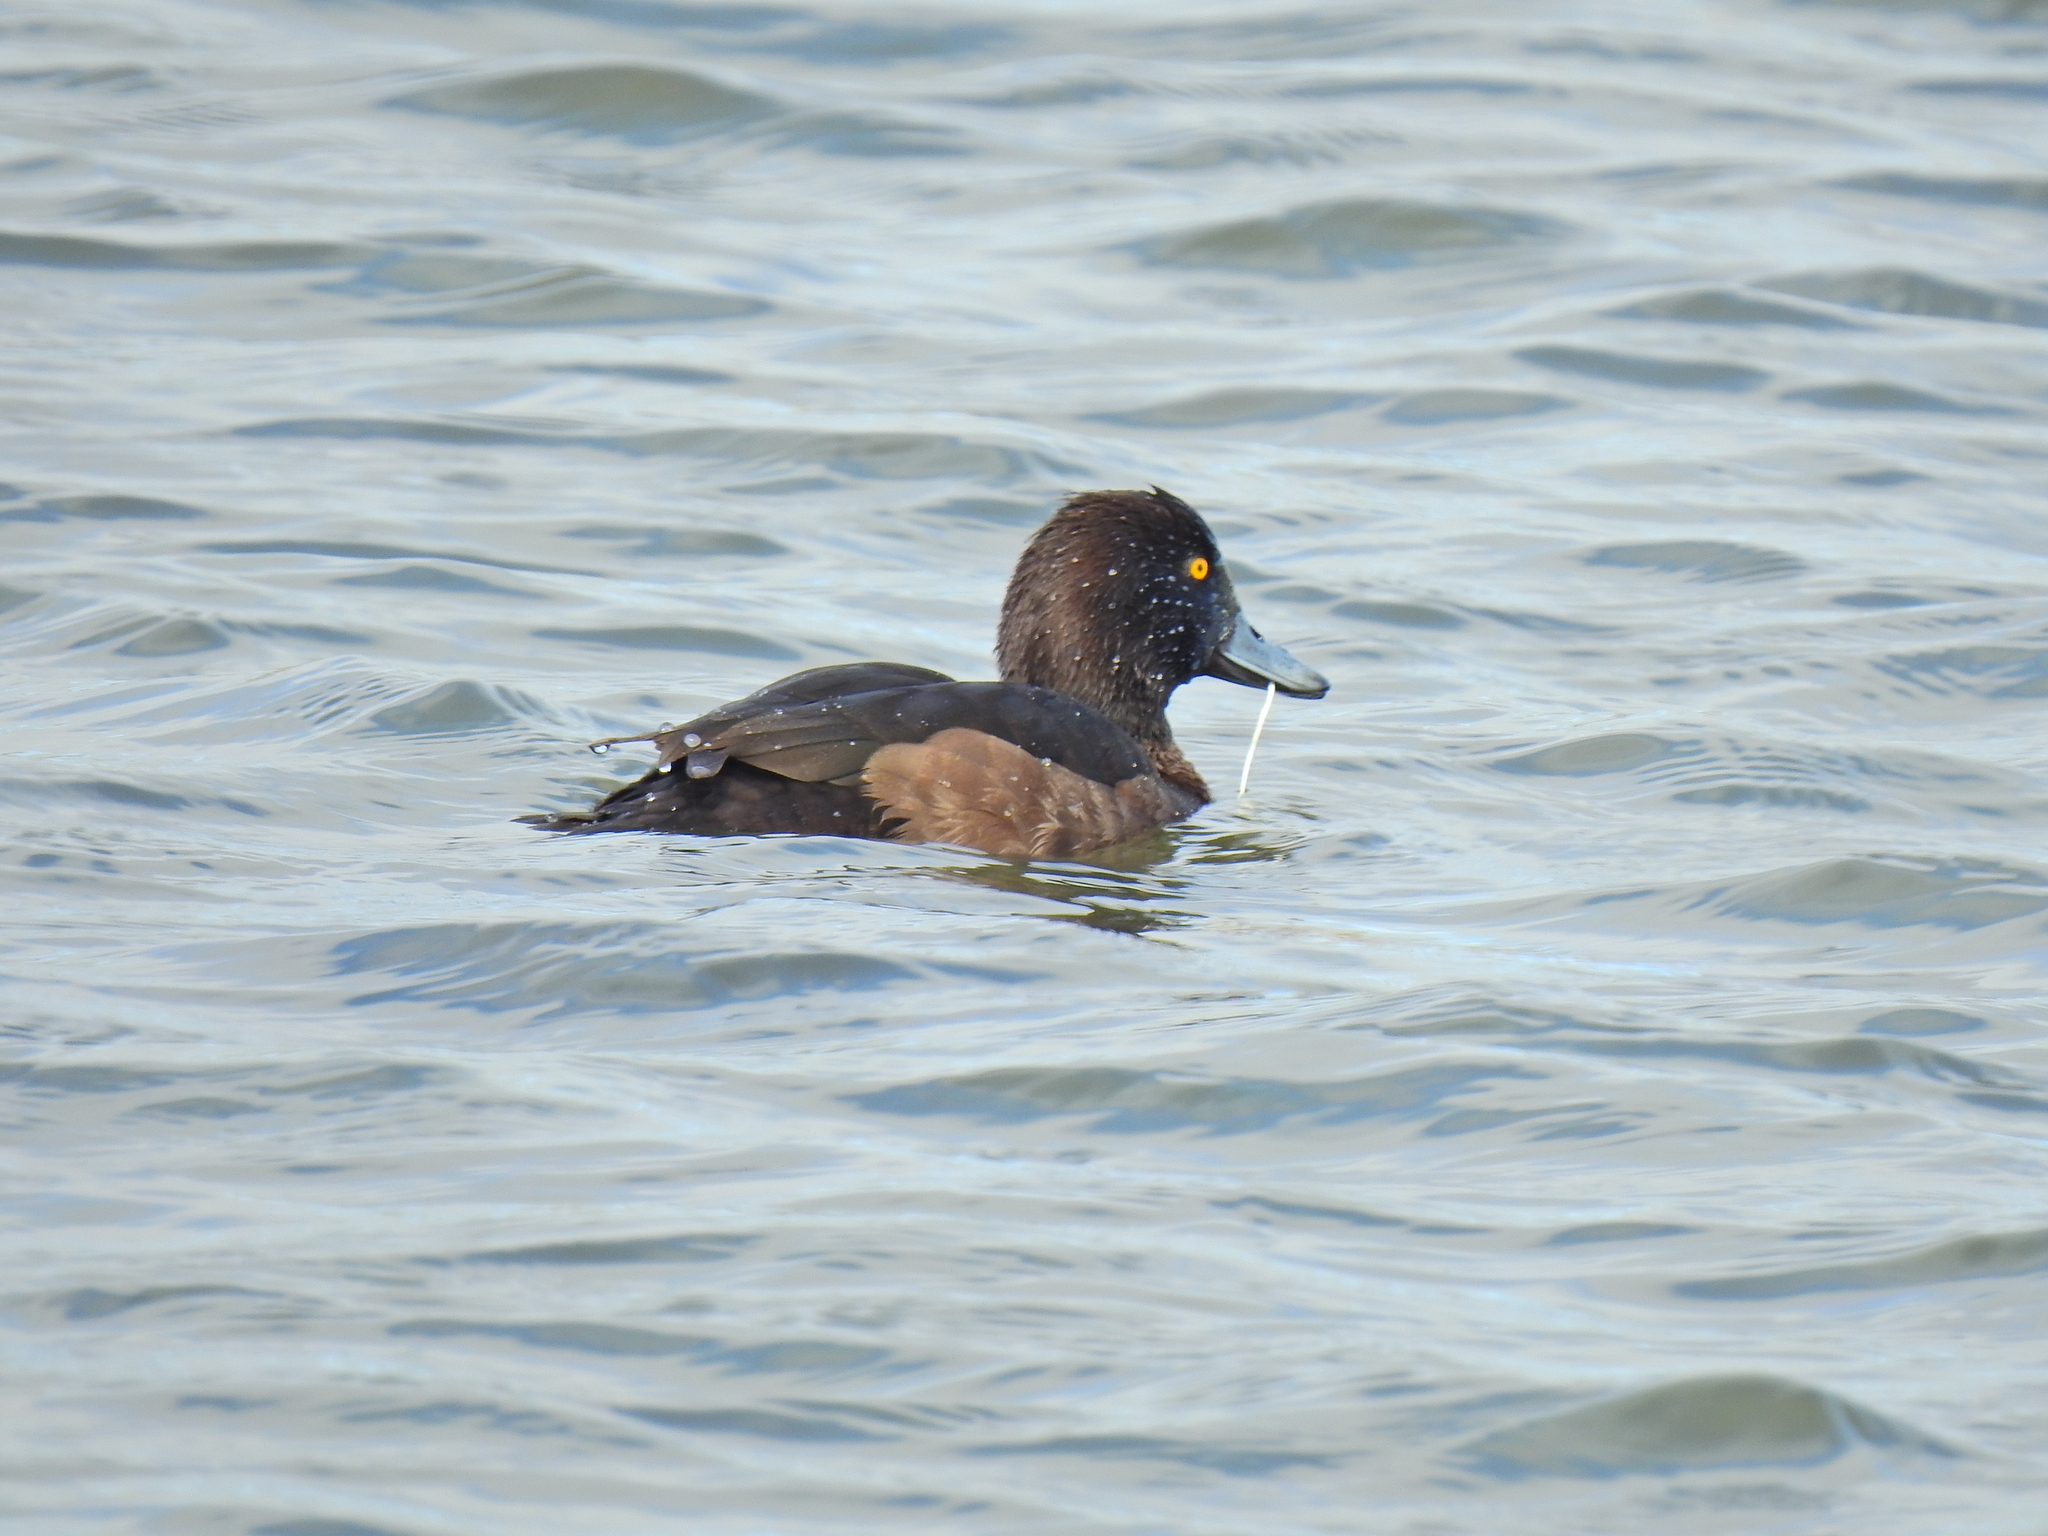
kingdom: Animalia
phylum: Chordata
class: Aves
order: Anseriformes
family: Anatidae
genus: Aythya
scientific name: Aythya fuligula
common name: Tufted duck
